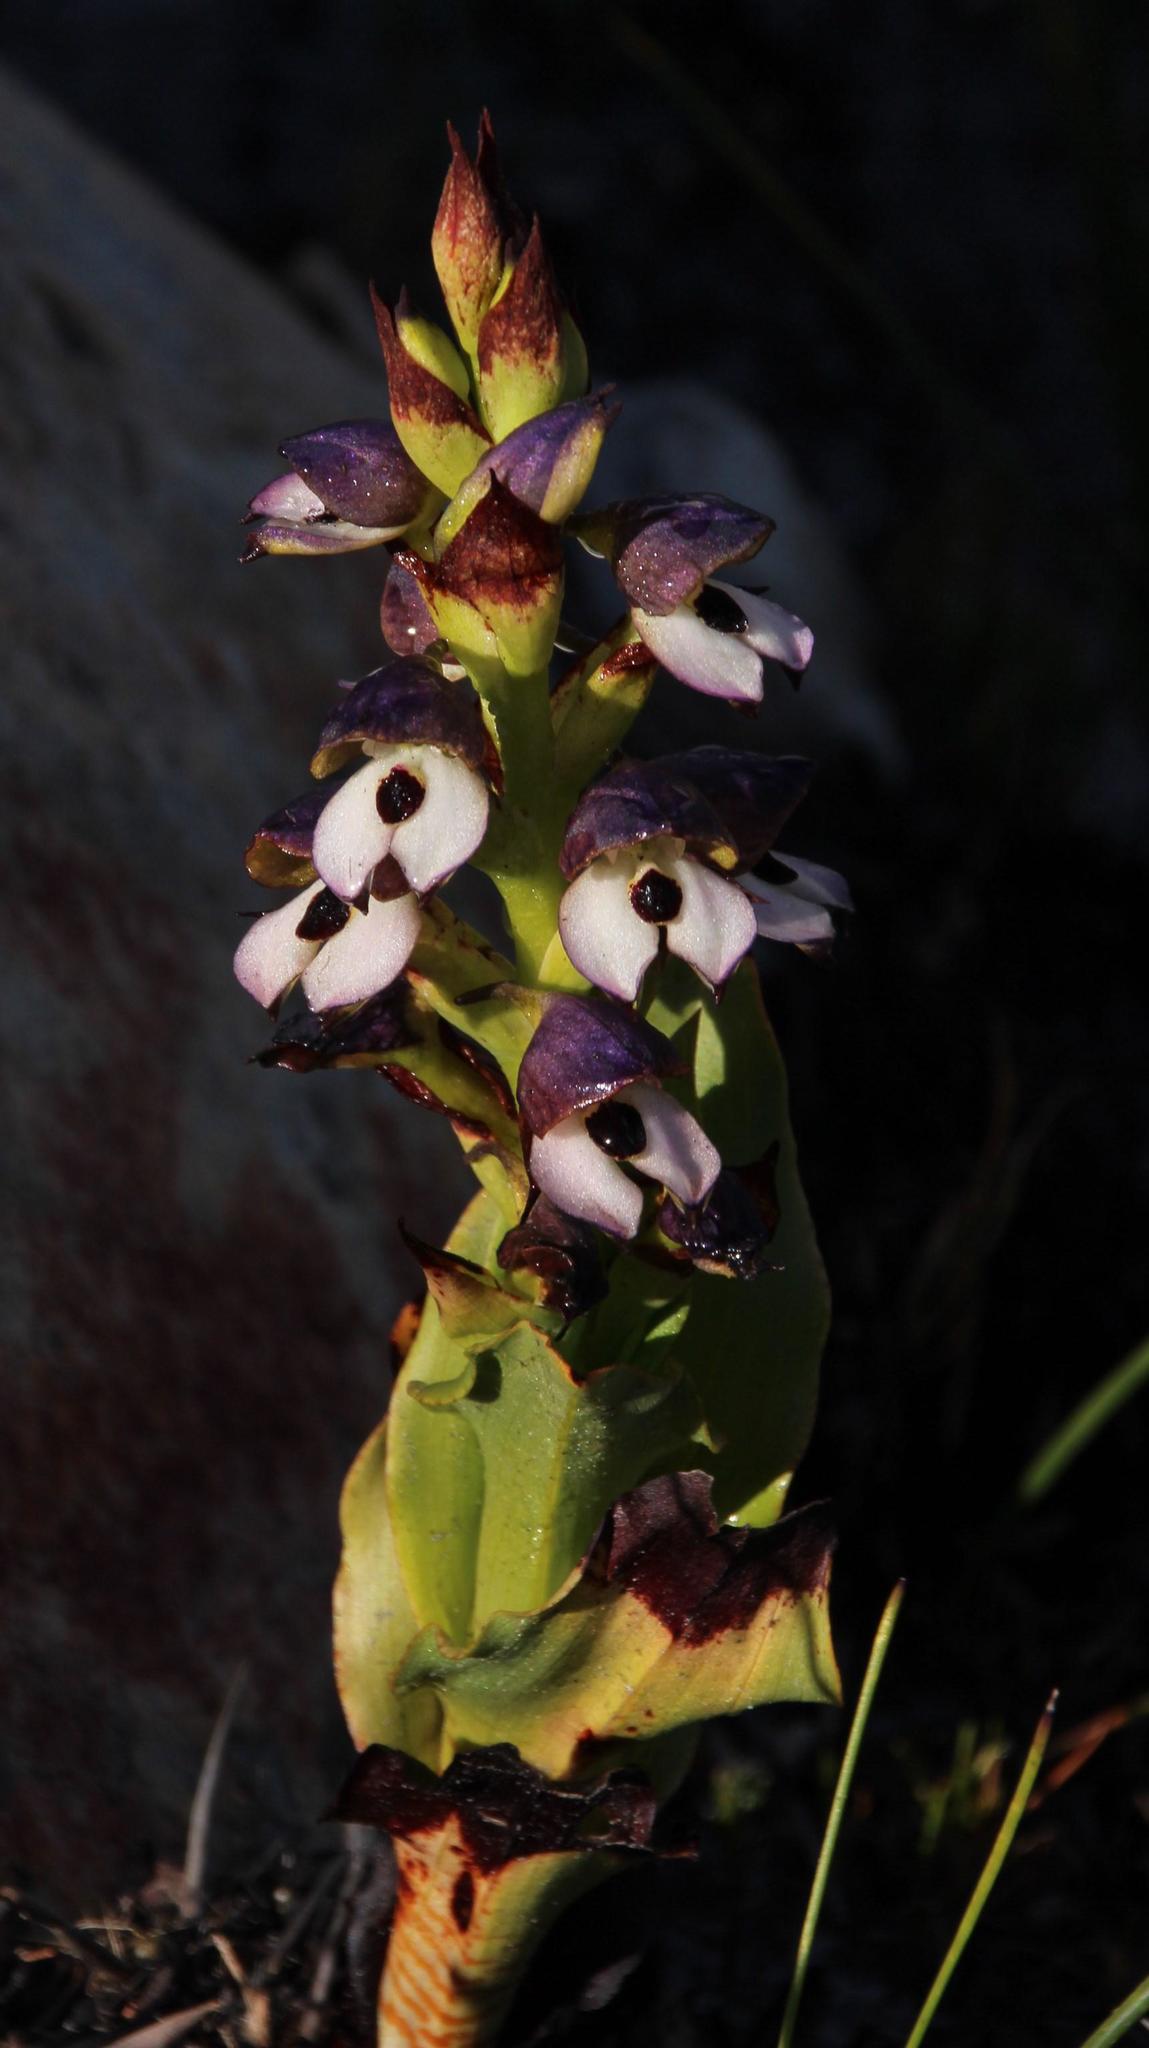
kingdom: Plantae
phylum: Tracheophyta
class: Liliopsida
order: Asparagales
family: Orchidaceae
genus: Disa
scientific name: Disa cornuta
